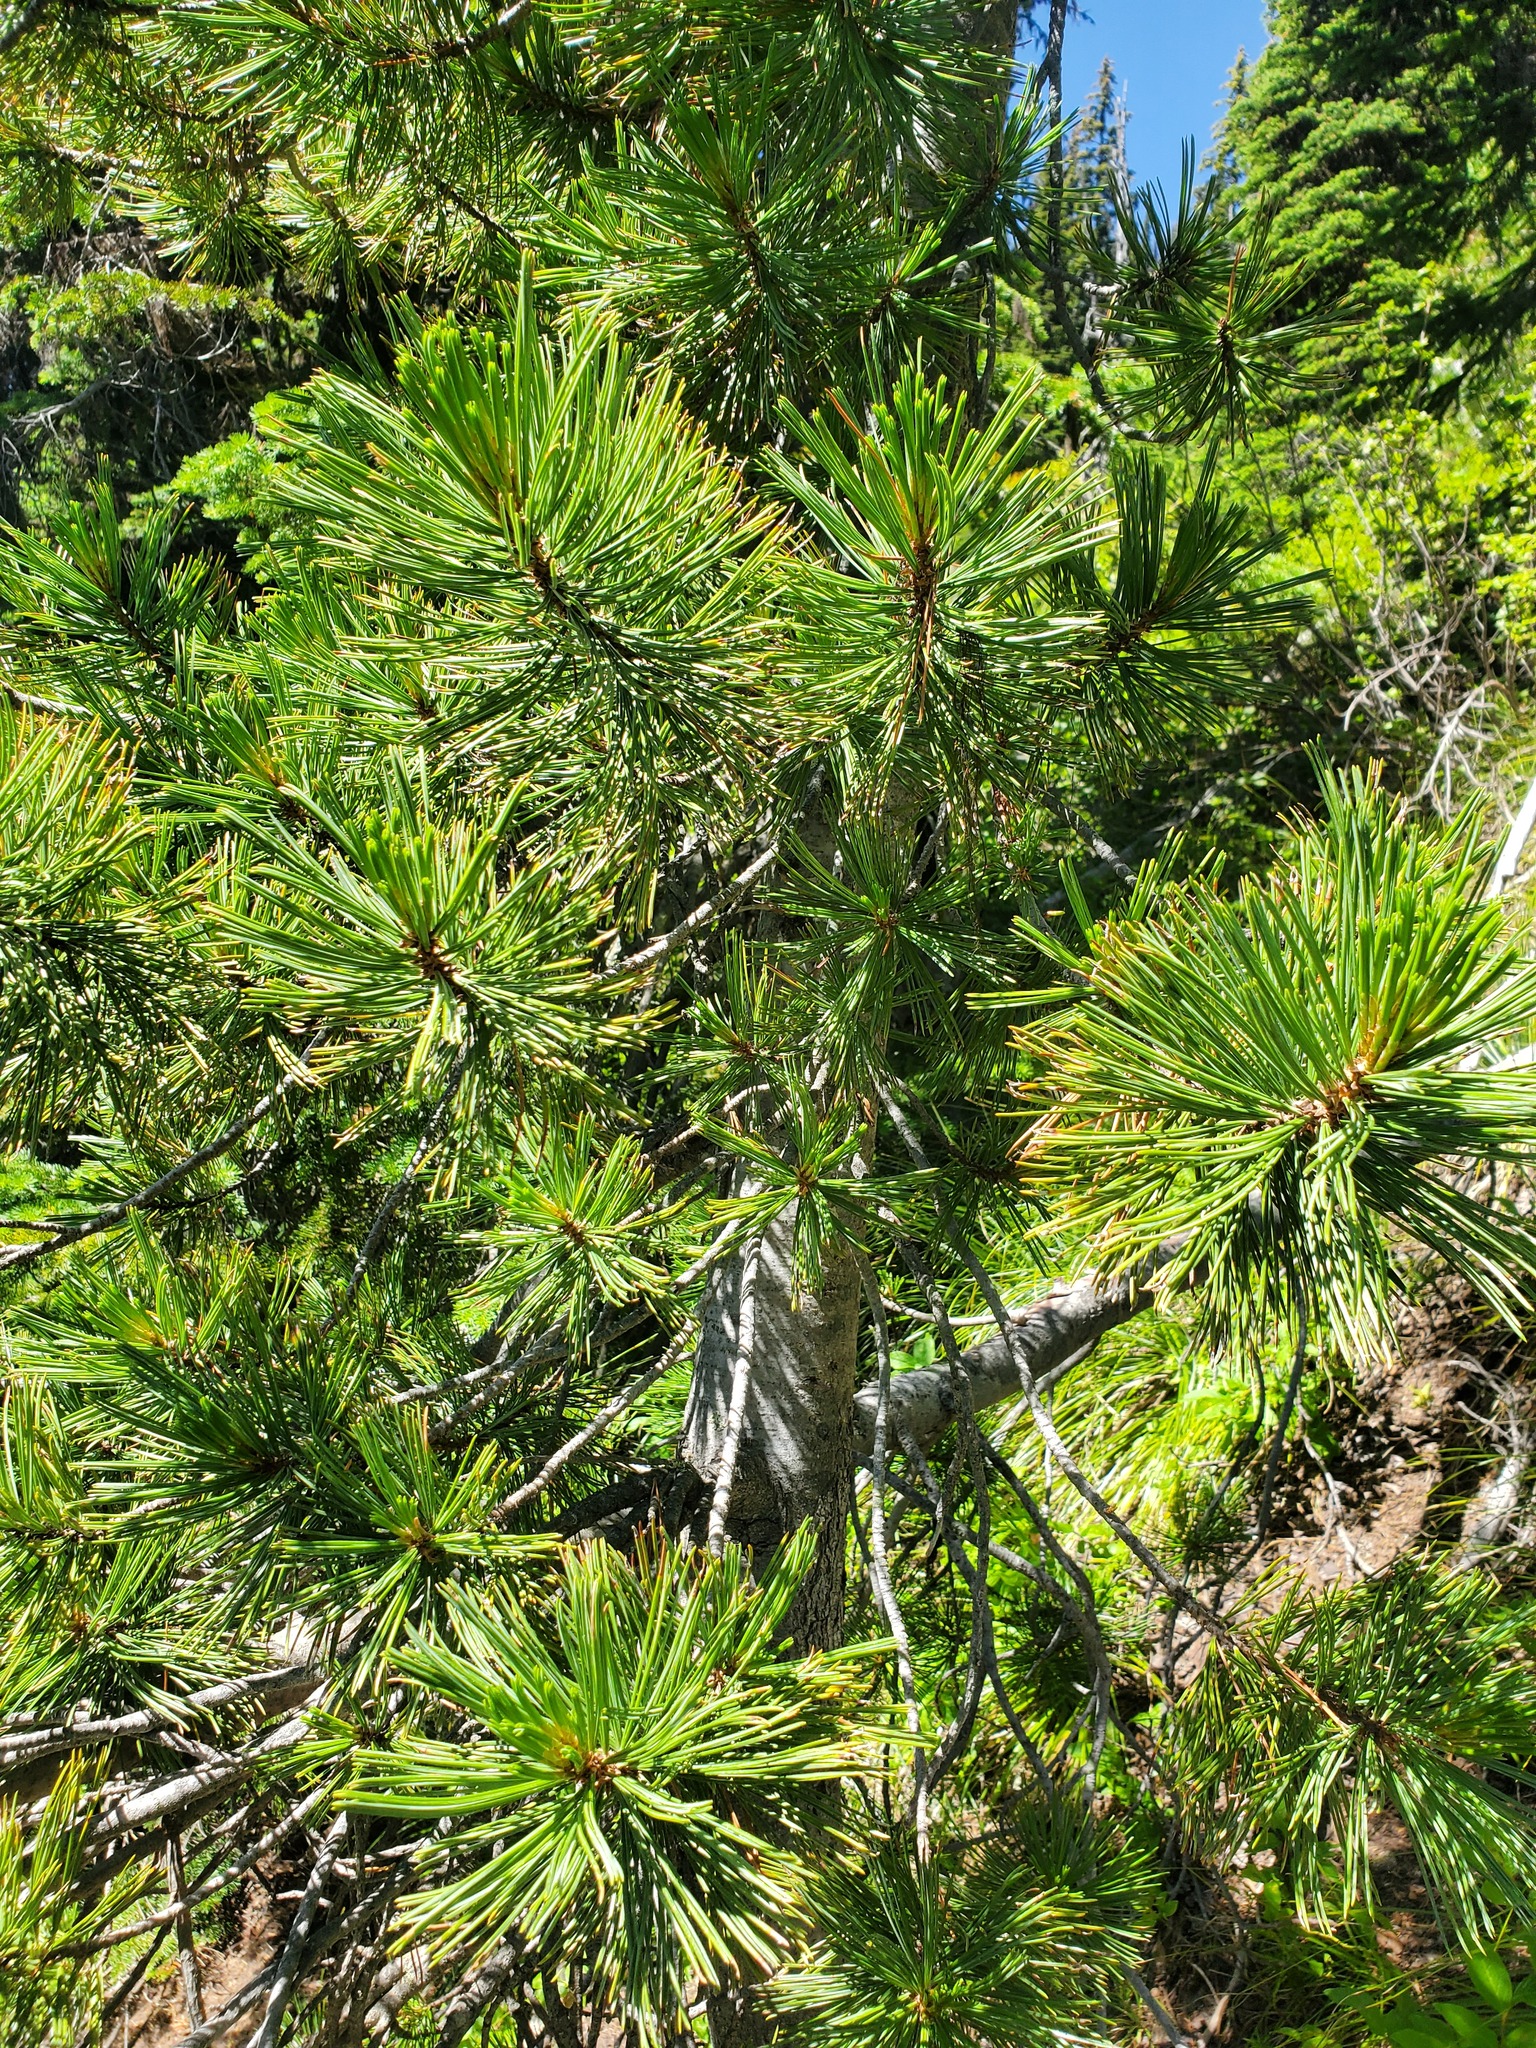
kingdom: Plantae
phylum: Tracheophyta
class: Pinopsida
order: Pinales
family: Pinaceae
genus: Pinus
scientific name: Pinus albicaulis
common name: Whitebark pine
